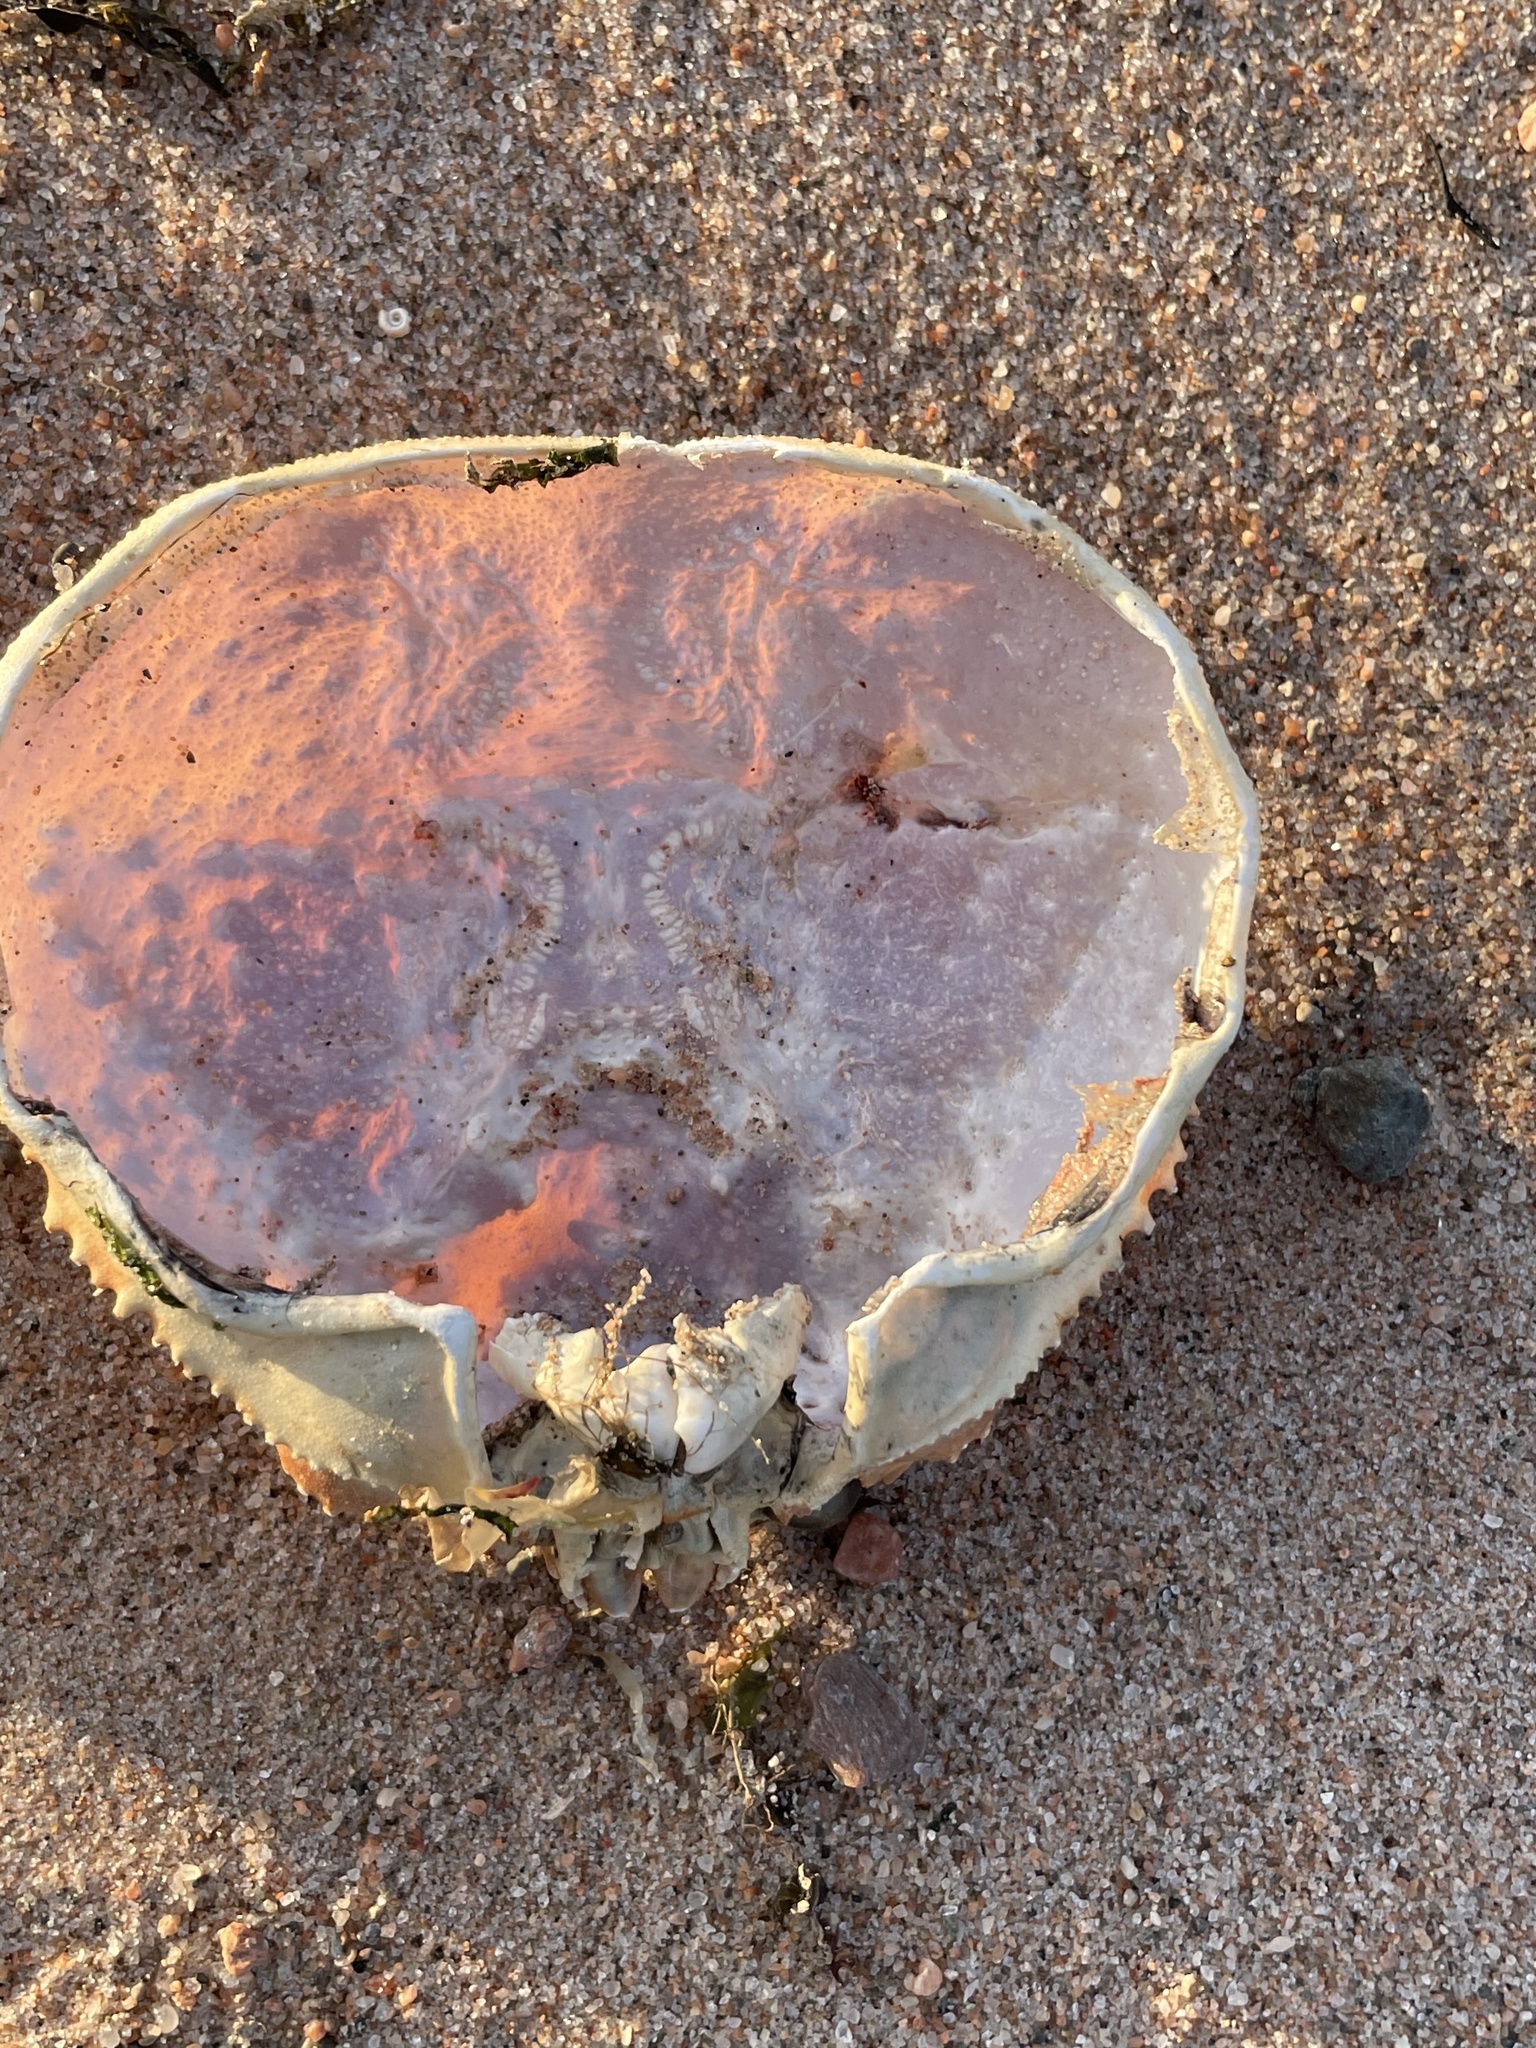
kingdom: Animalia
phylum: Arthropoda
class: Malacostraca
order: Decapoda
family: Oregoniidae
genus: Chionoecetes
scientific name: Chionoecetes opilio
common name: Atlantic snow crab
